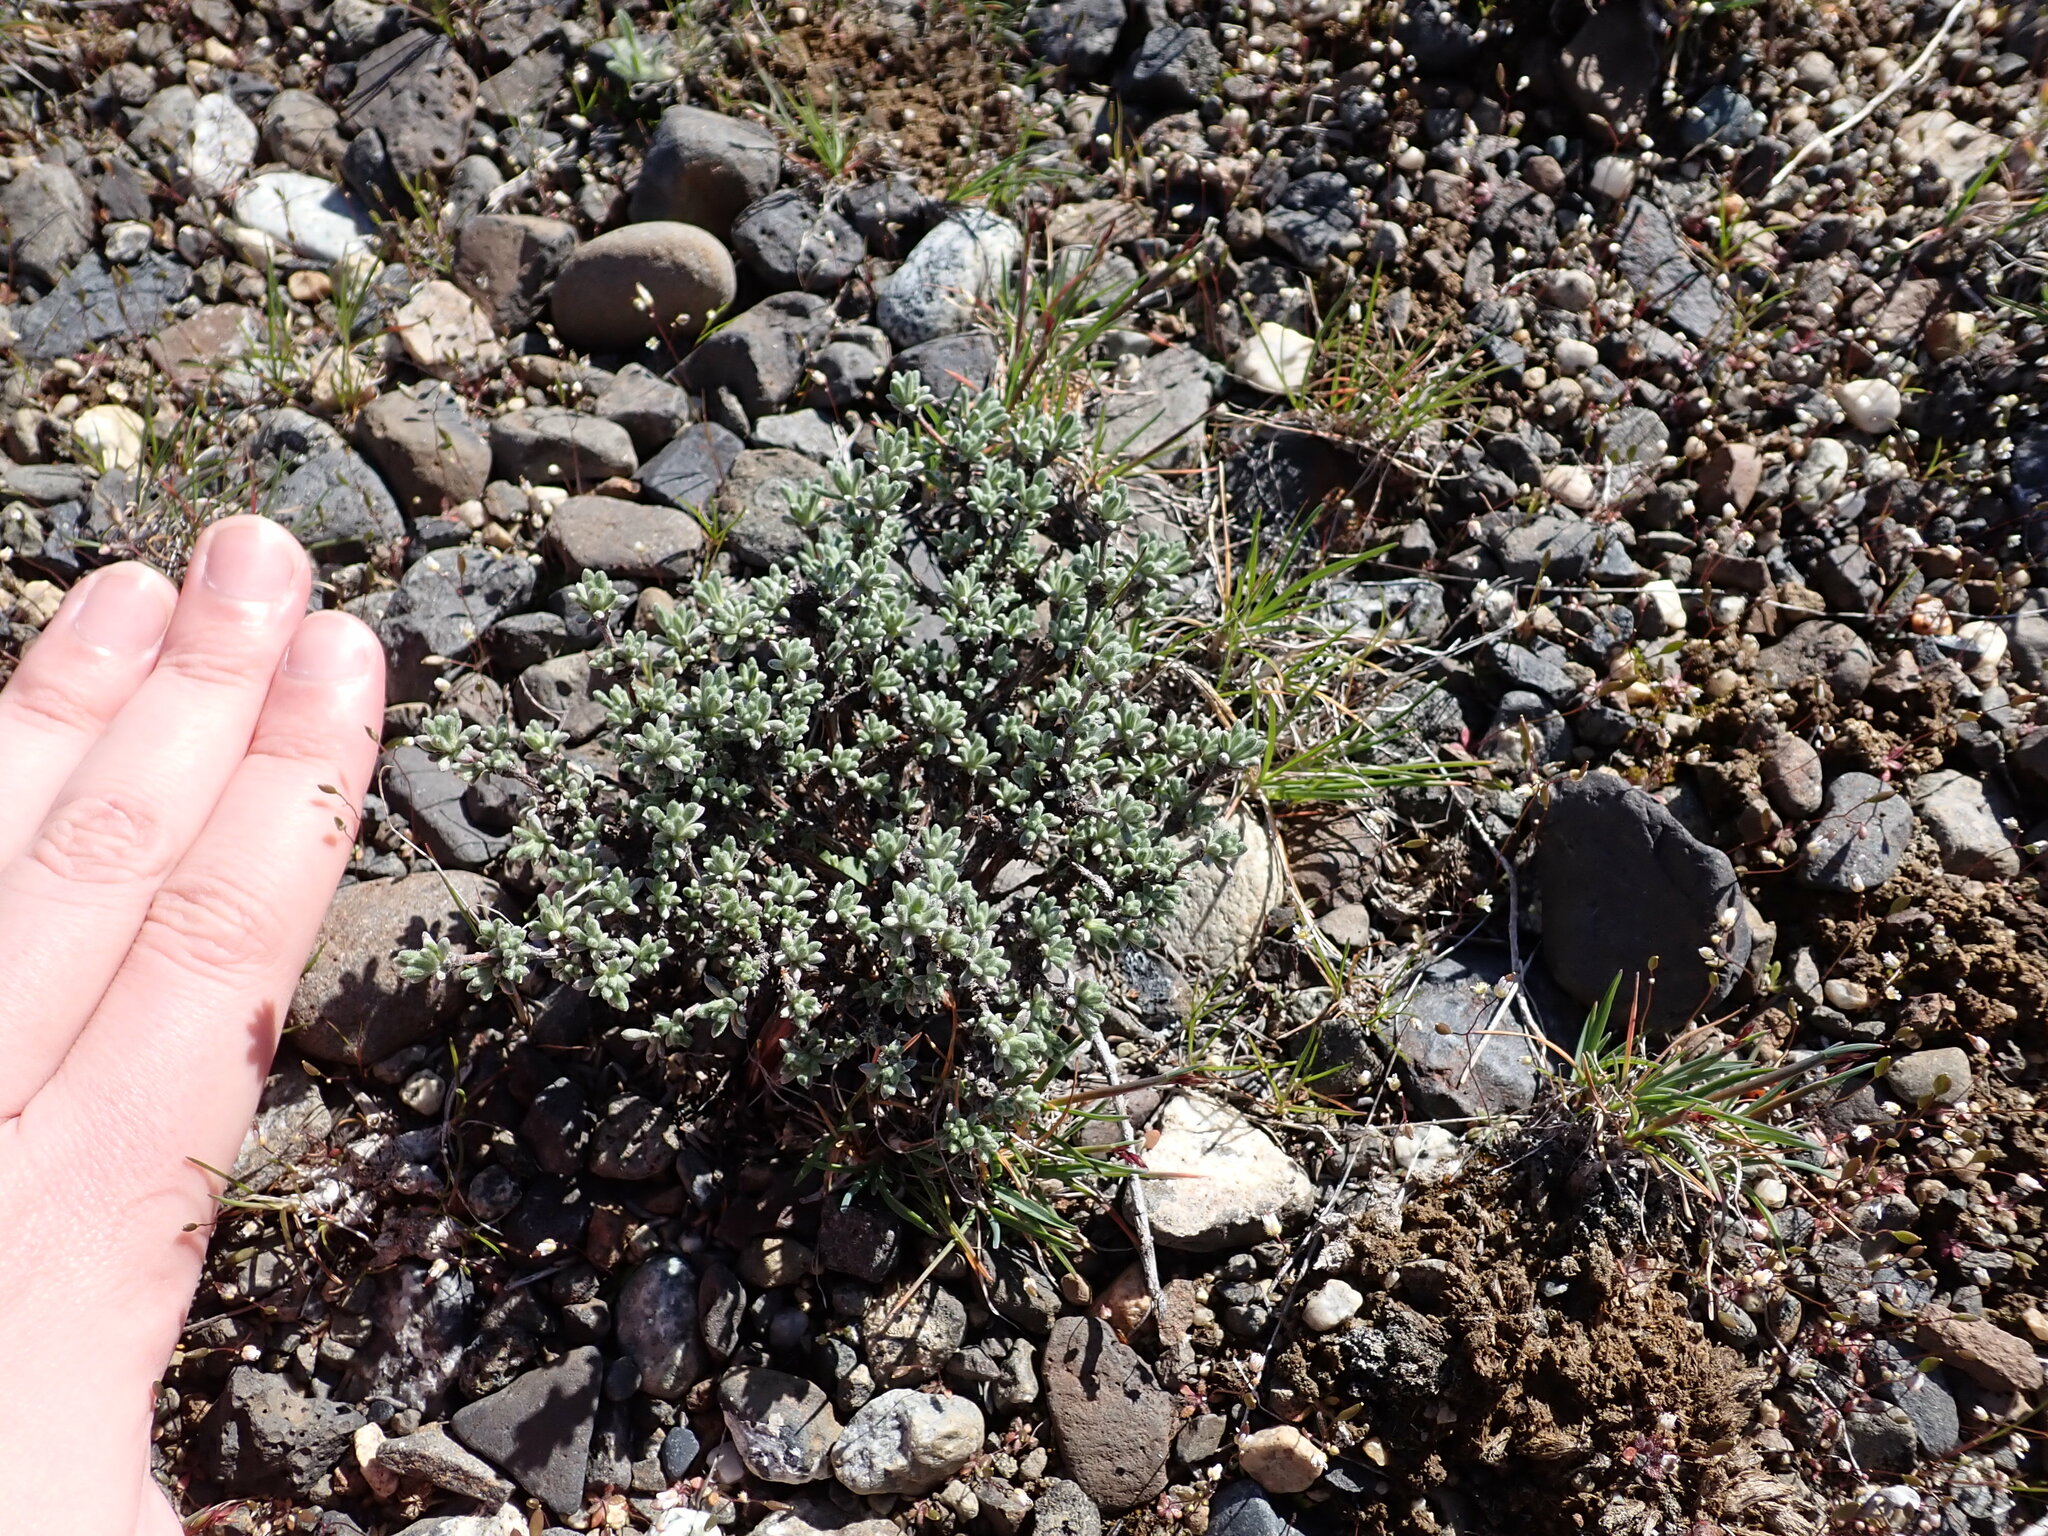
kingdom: Plantae
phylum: Tracheophyta
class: Magnoliopsida
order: Caryophyllales
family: Polygonaceae
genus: Eriogonum
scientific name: Eriogonum thymoides
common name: Thyme-leaf wild buckwheat
